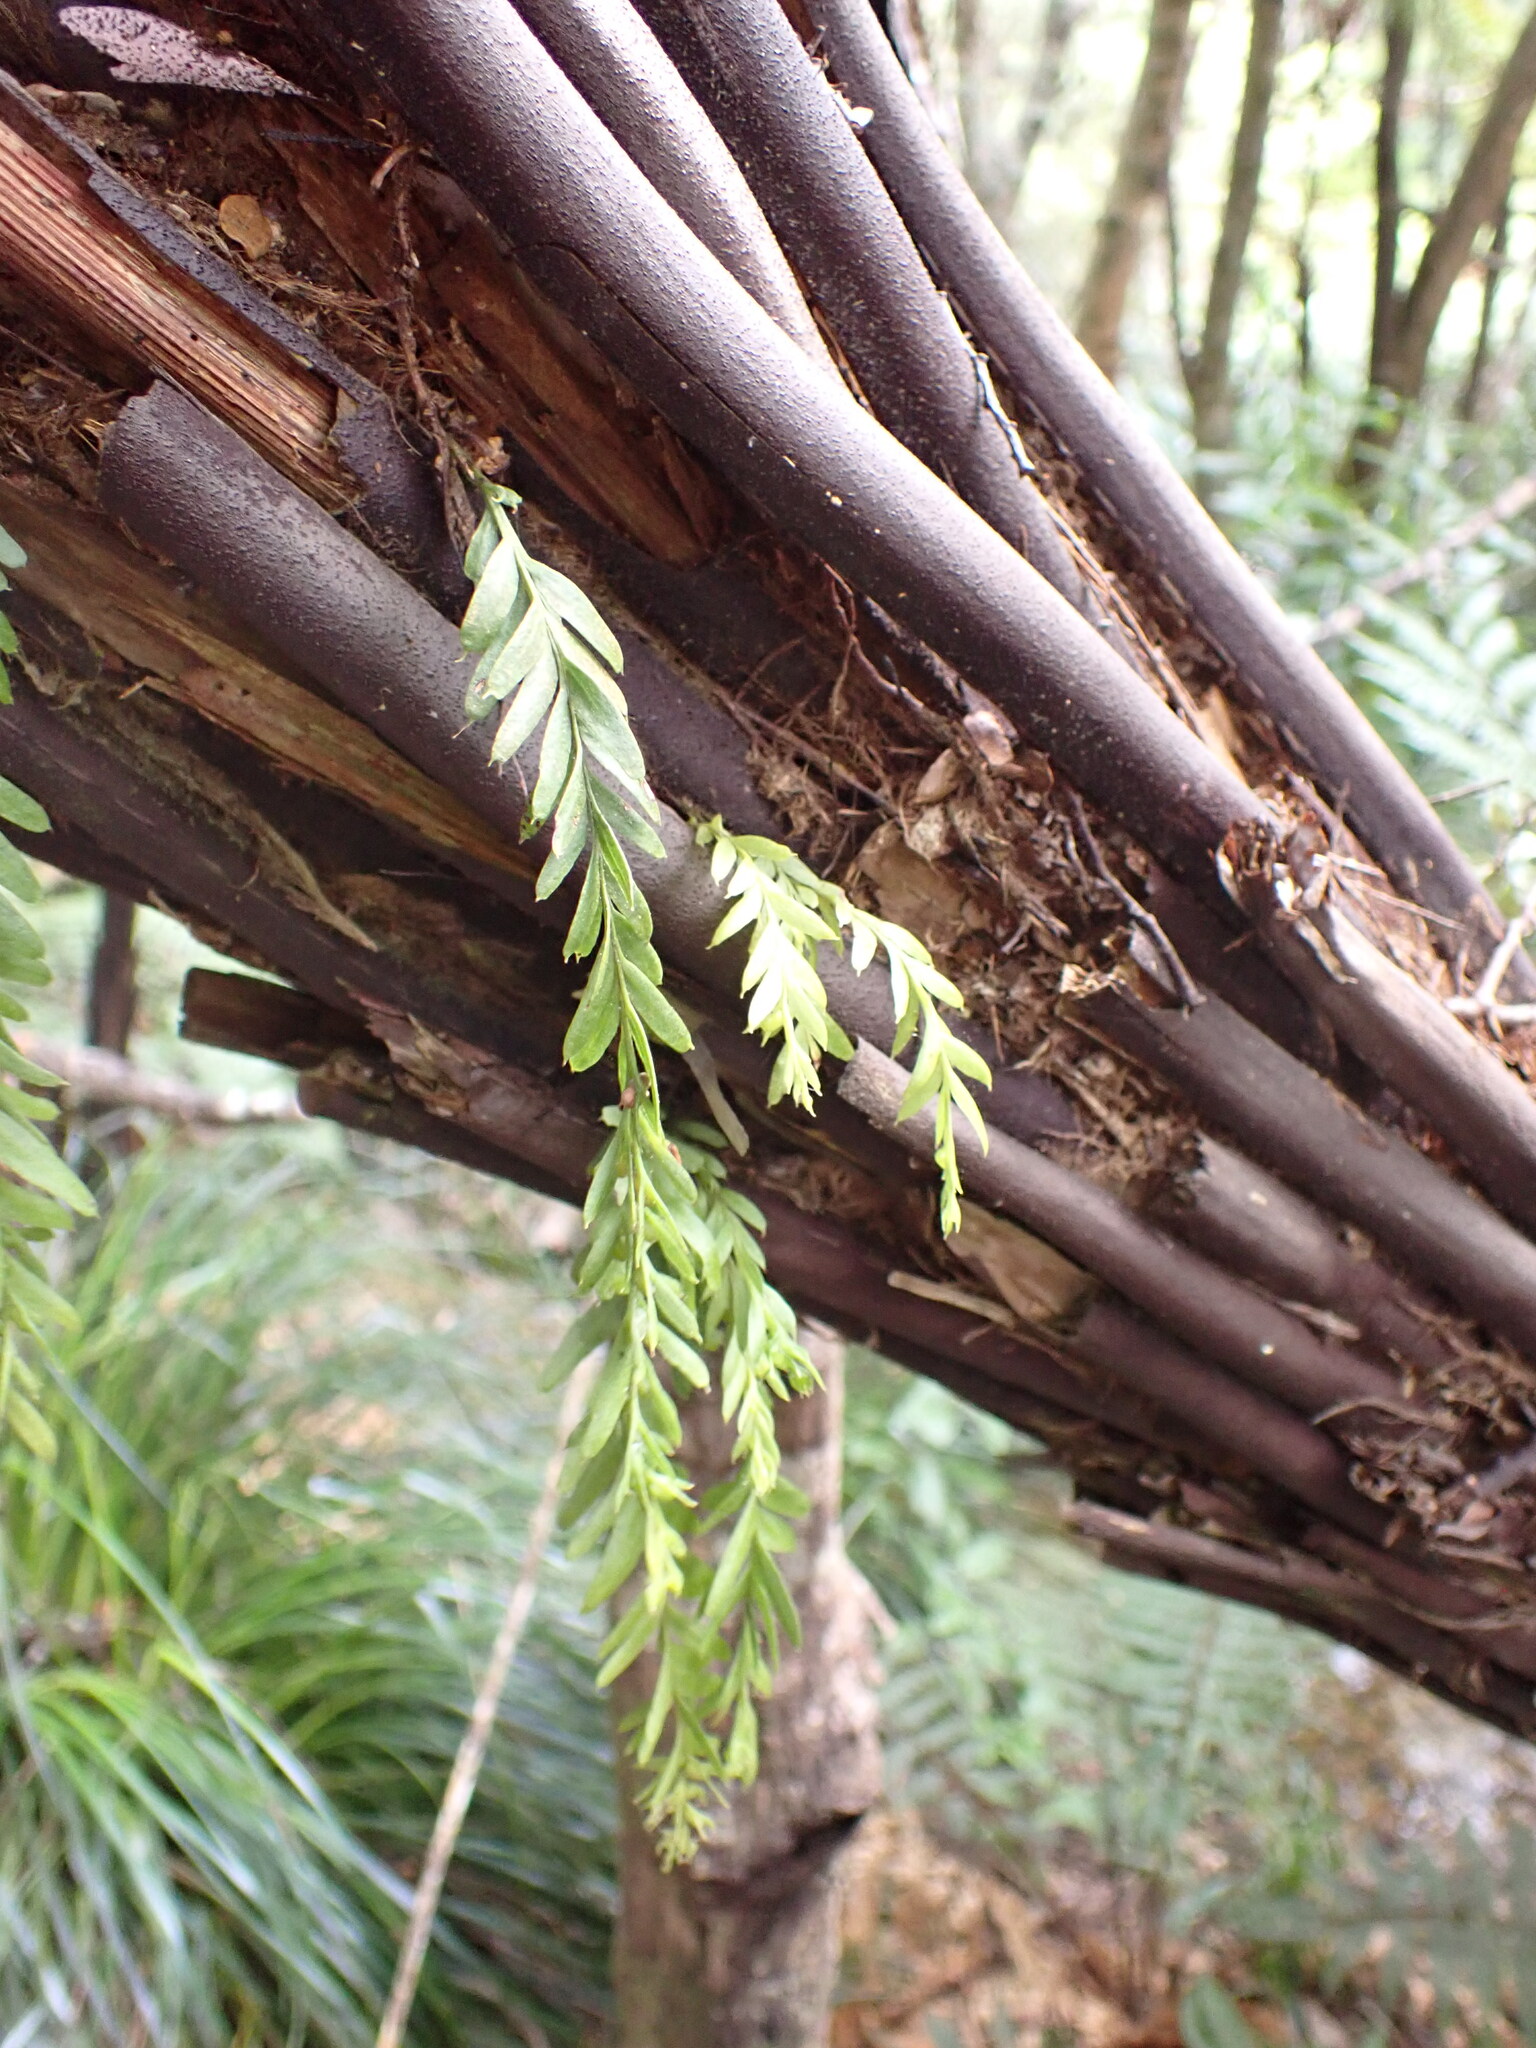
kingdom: Plantae
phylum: Tracheophyta
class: Polypodiopsida
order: Psilotales
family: Psilotaceae
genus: Tmesipteris
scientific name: Tmesipteris elongata
